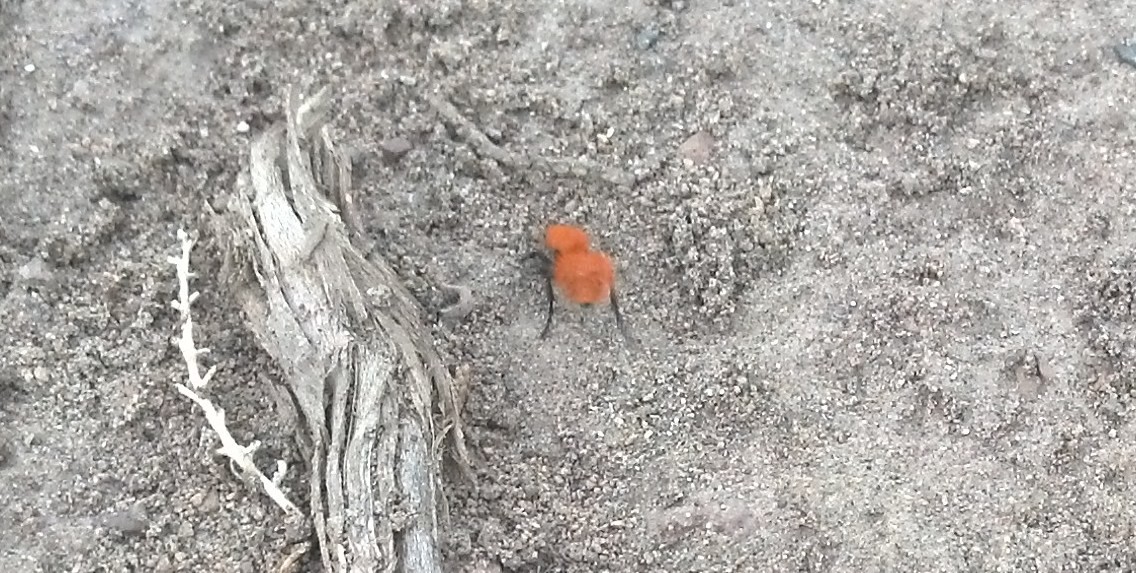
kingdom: Animalia
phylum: Arthropoda
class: Insecta
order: Hymenoptera
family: Mutillidae
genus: Dasymutilla
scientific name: Dasymutilla
